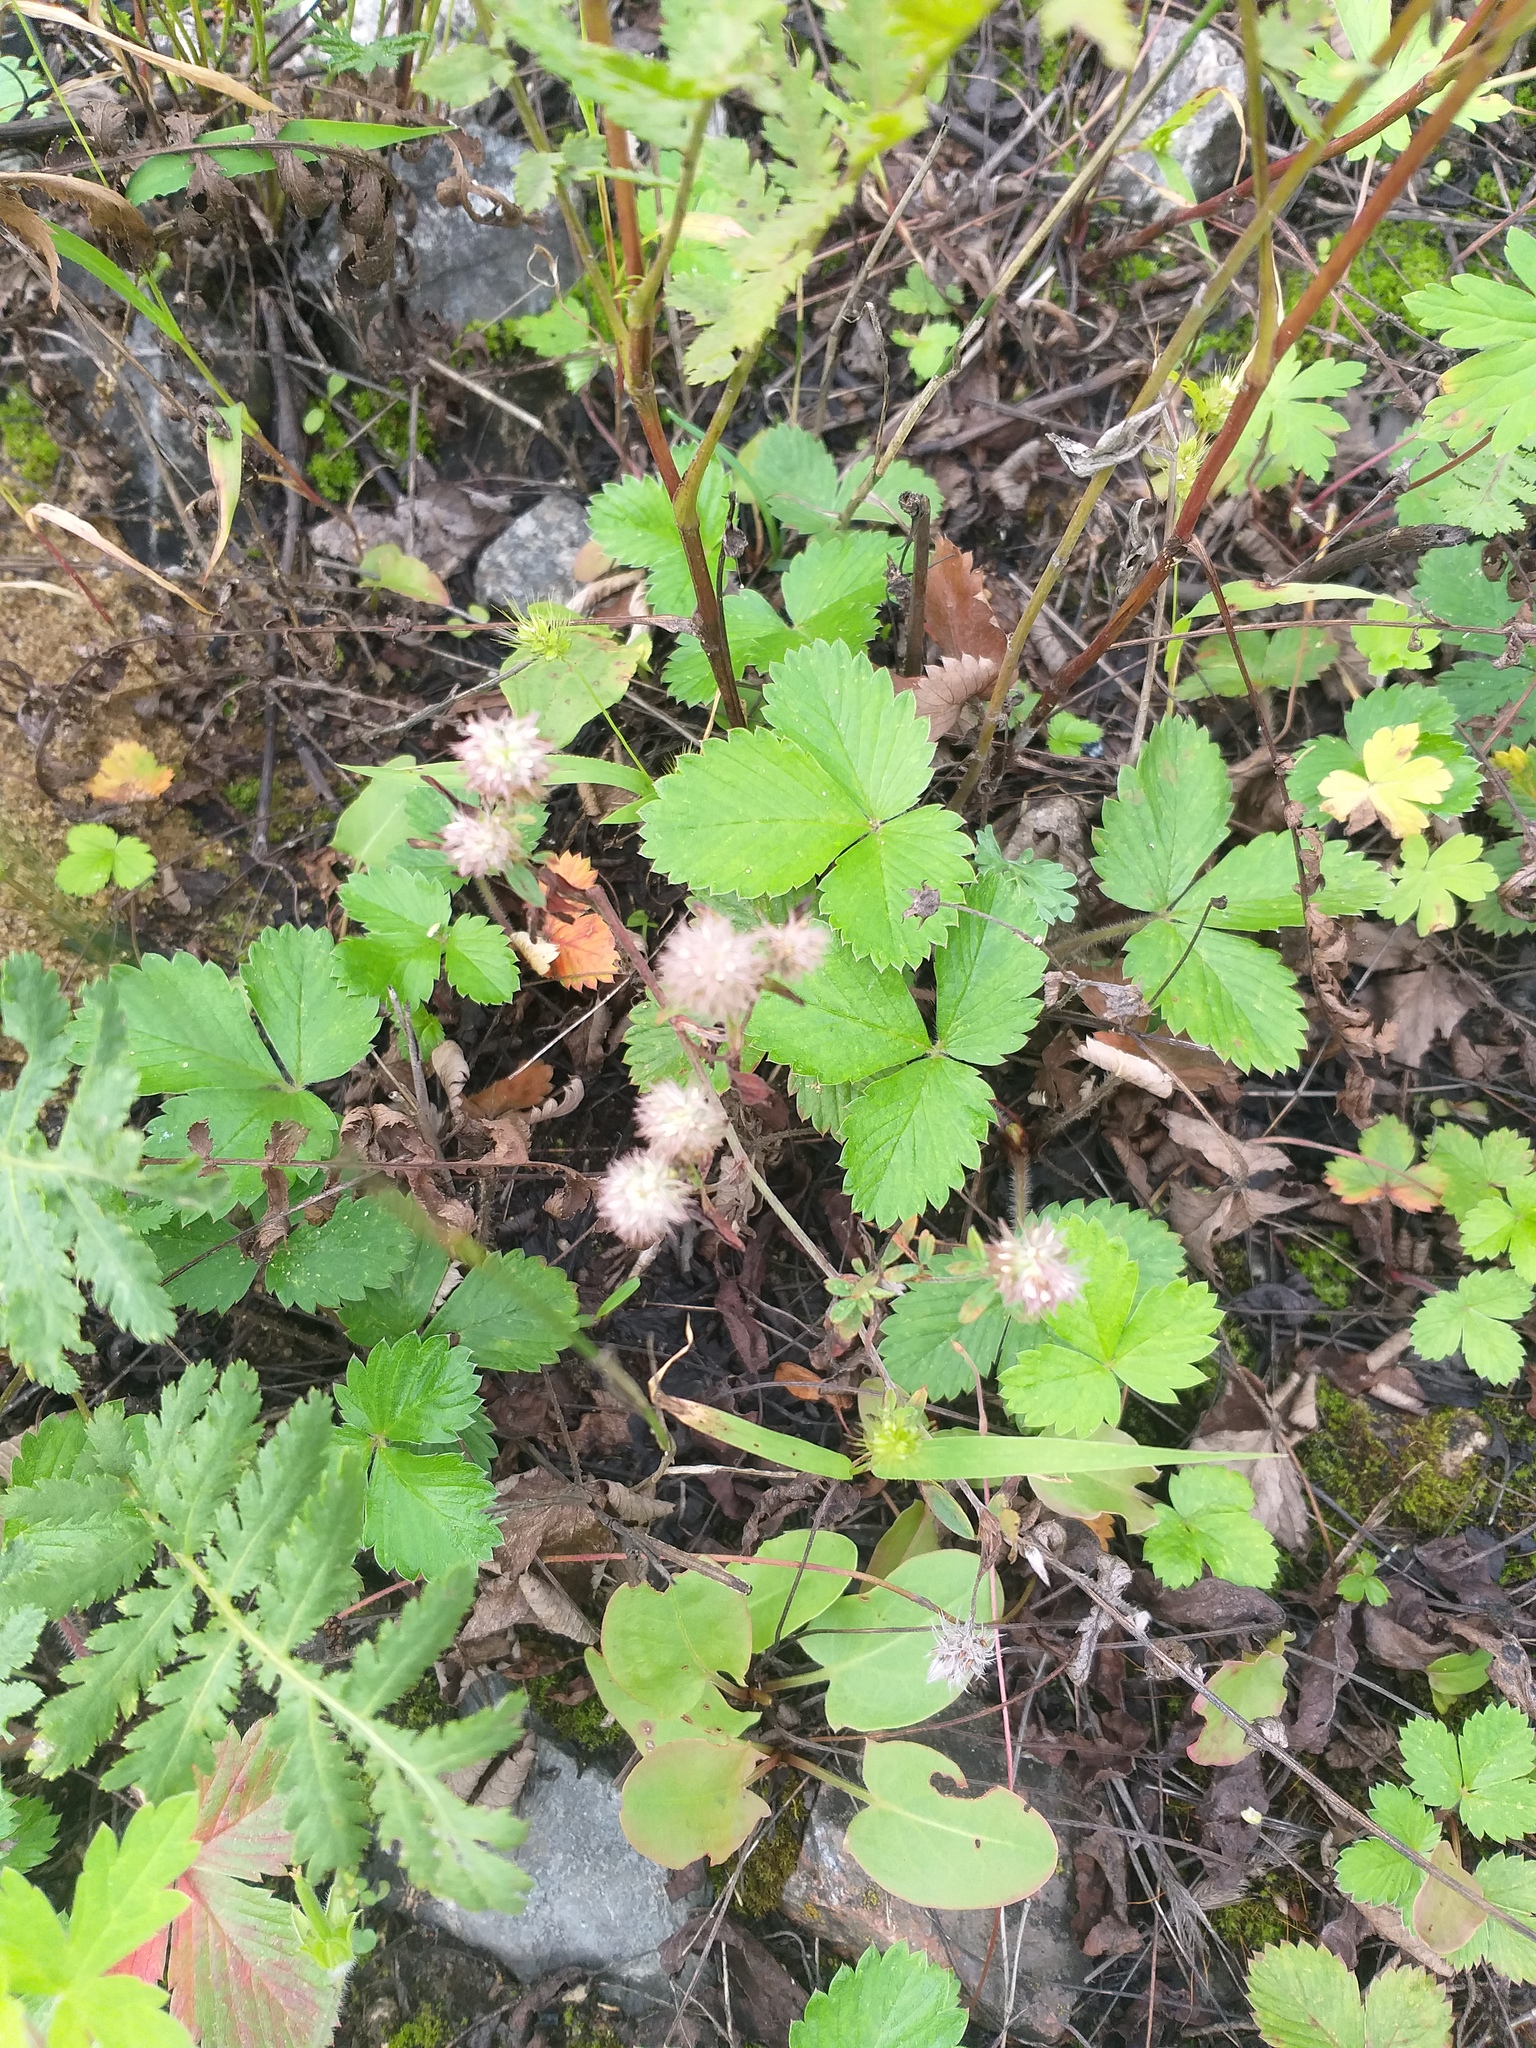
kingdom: Plantae
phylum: Tracheophyta
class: Magnoliopsida
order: Fabales
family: Fabaceae
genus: Trifolium
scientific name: Trifolium arvense
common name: Hare's-foot clover
